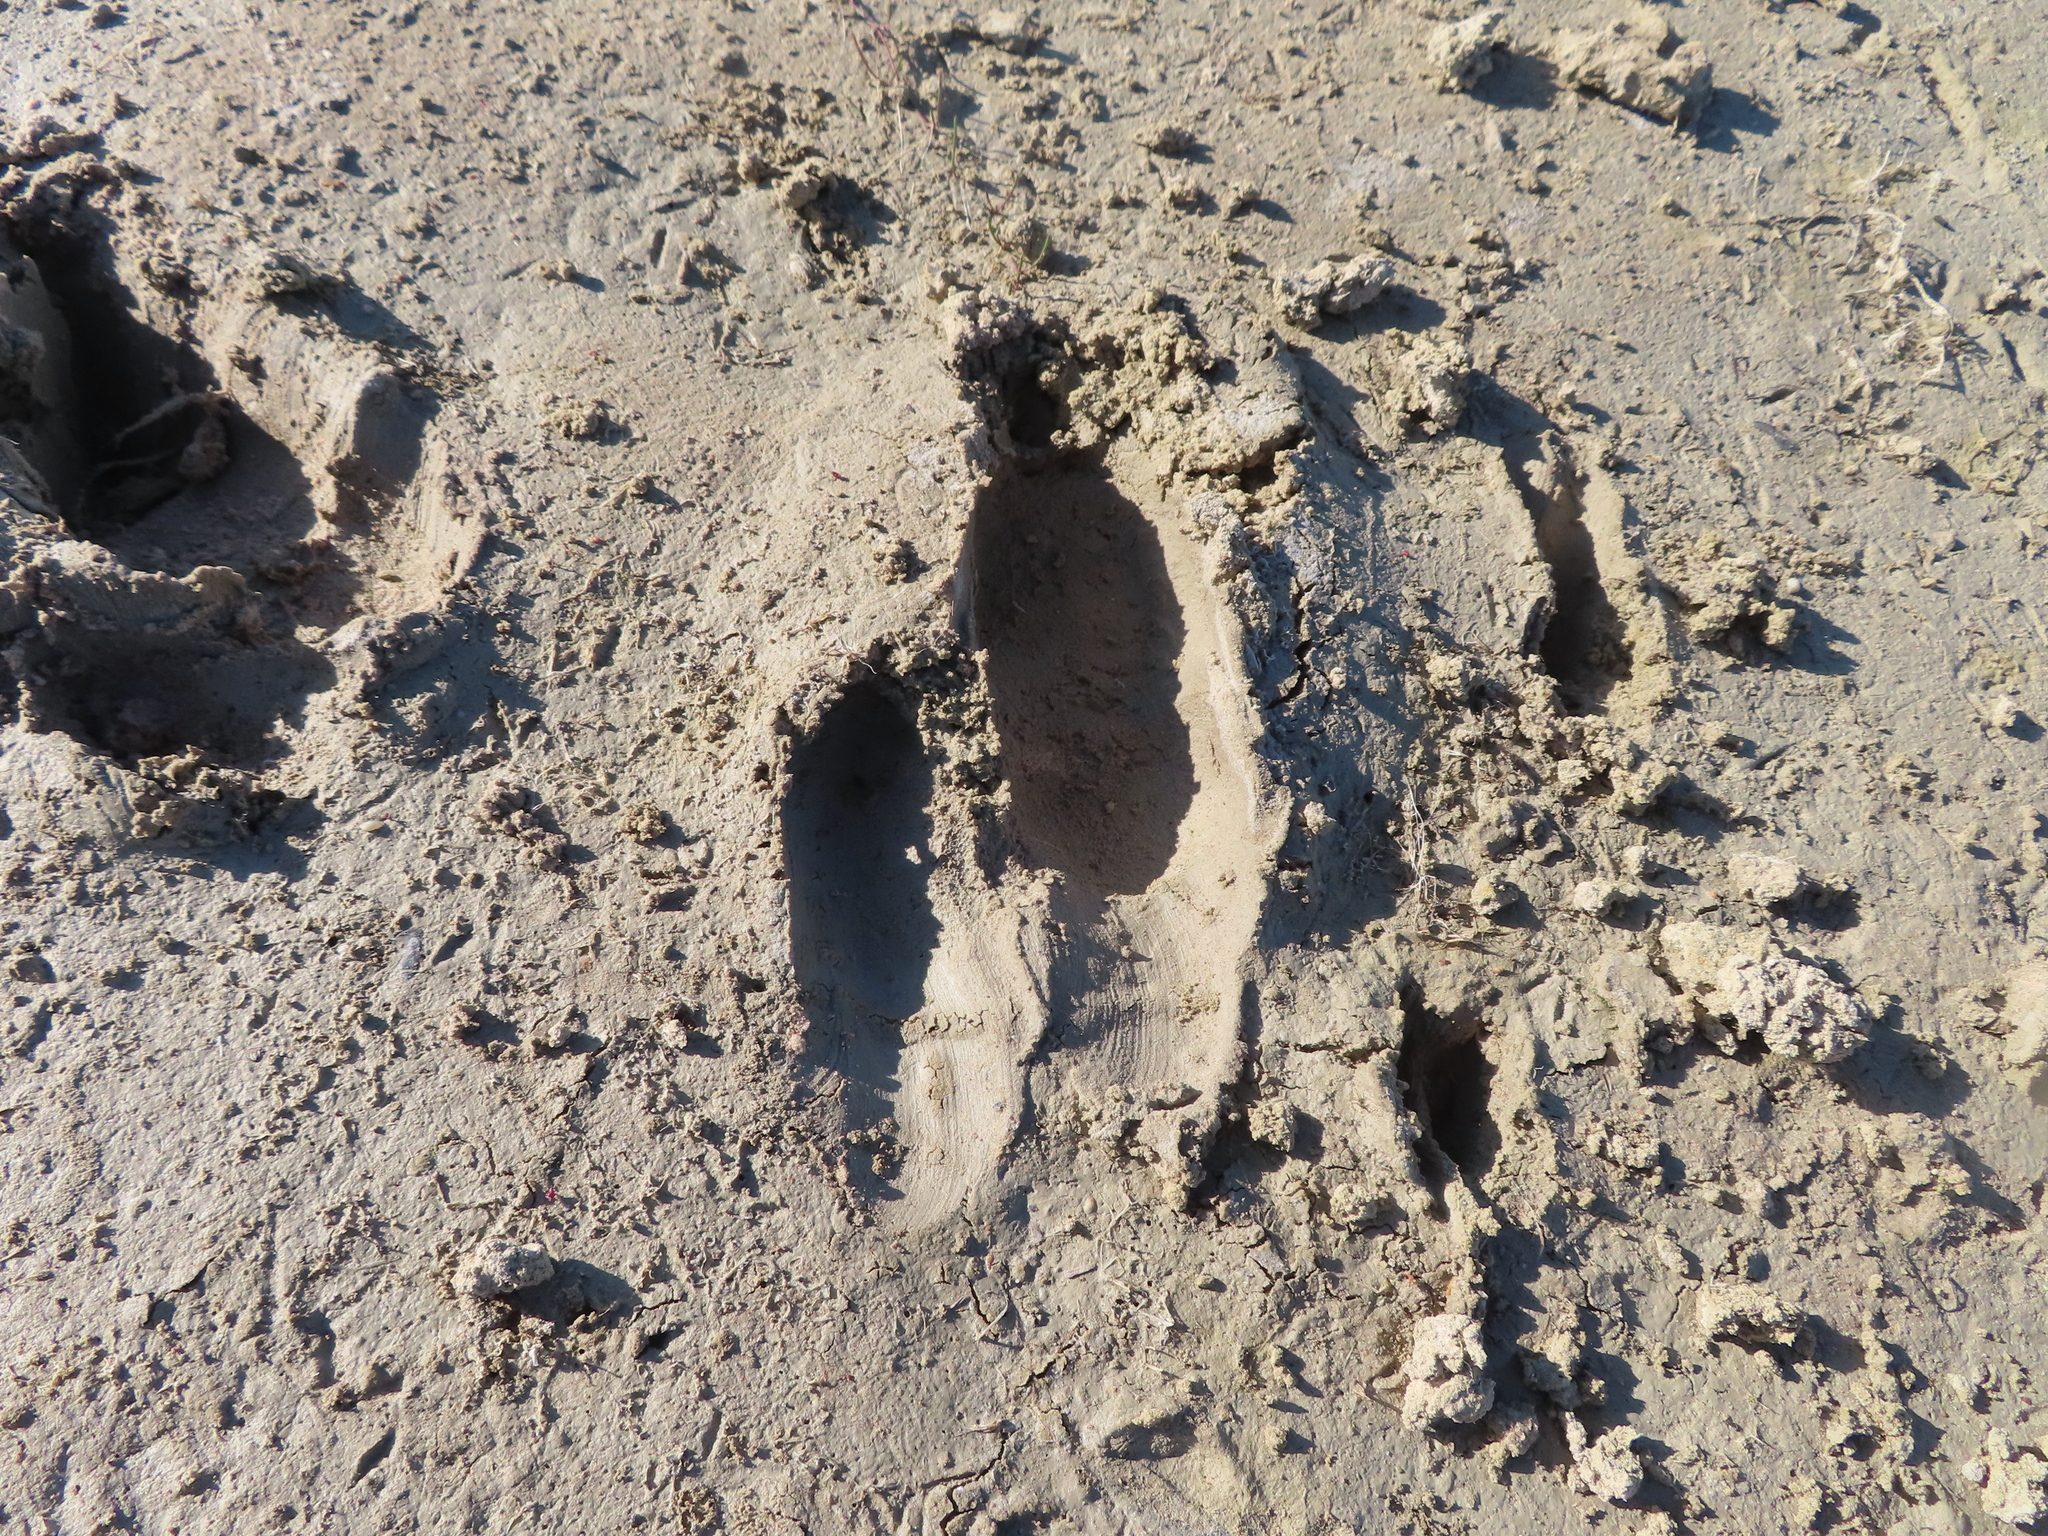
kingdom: Animalia
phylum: Chordata
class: Aves
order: Struthioniformes
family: Struthionidae
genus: Struthio
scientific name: Struthio camelus
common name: Common ostrich
